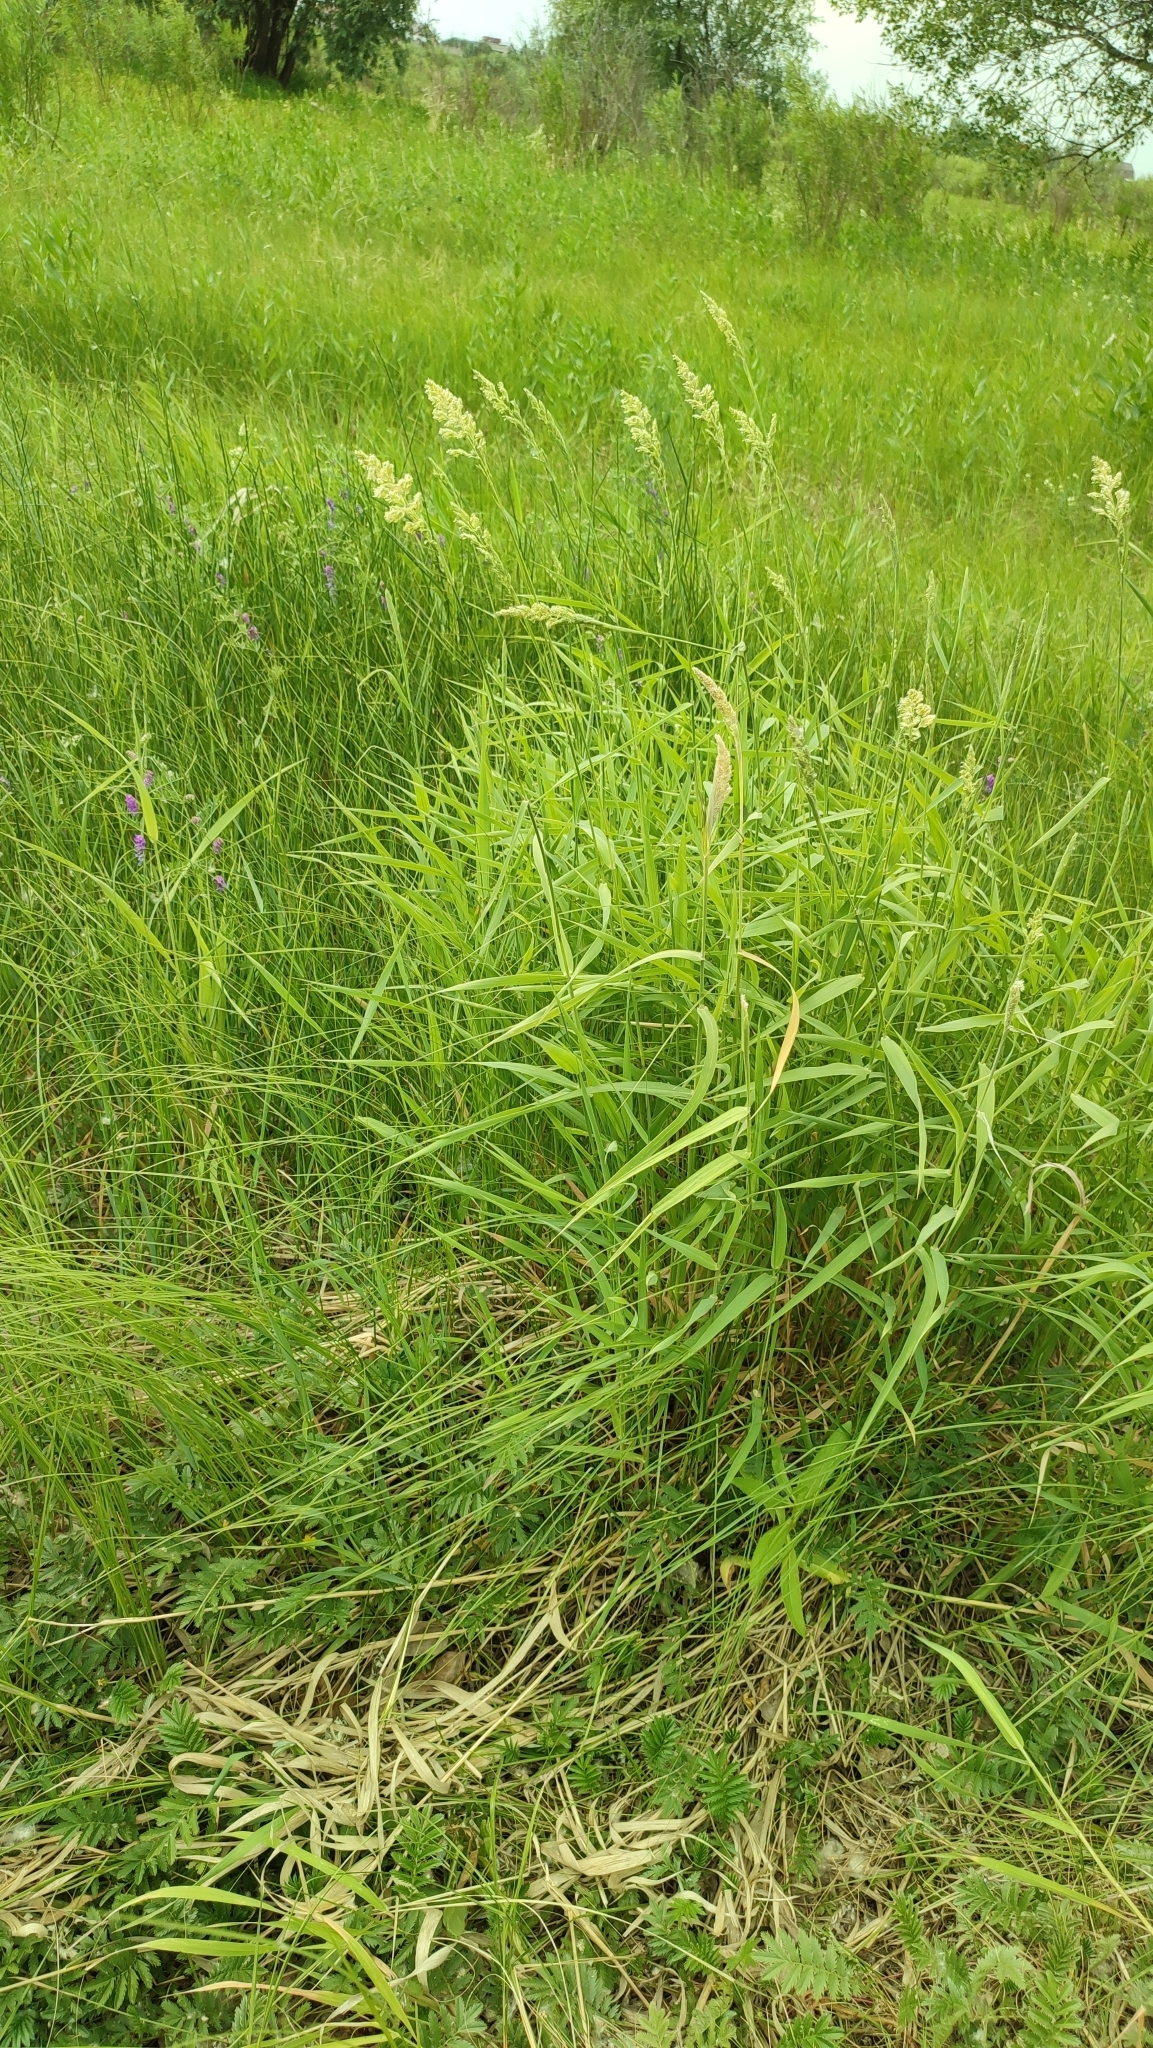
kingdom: Plantae
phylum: Tracheophyta
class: Liliopsida
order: Poales
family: Poaceae
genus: Phalaris
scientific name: Phalaris arundinacea
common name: Reed canary-grass
